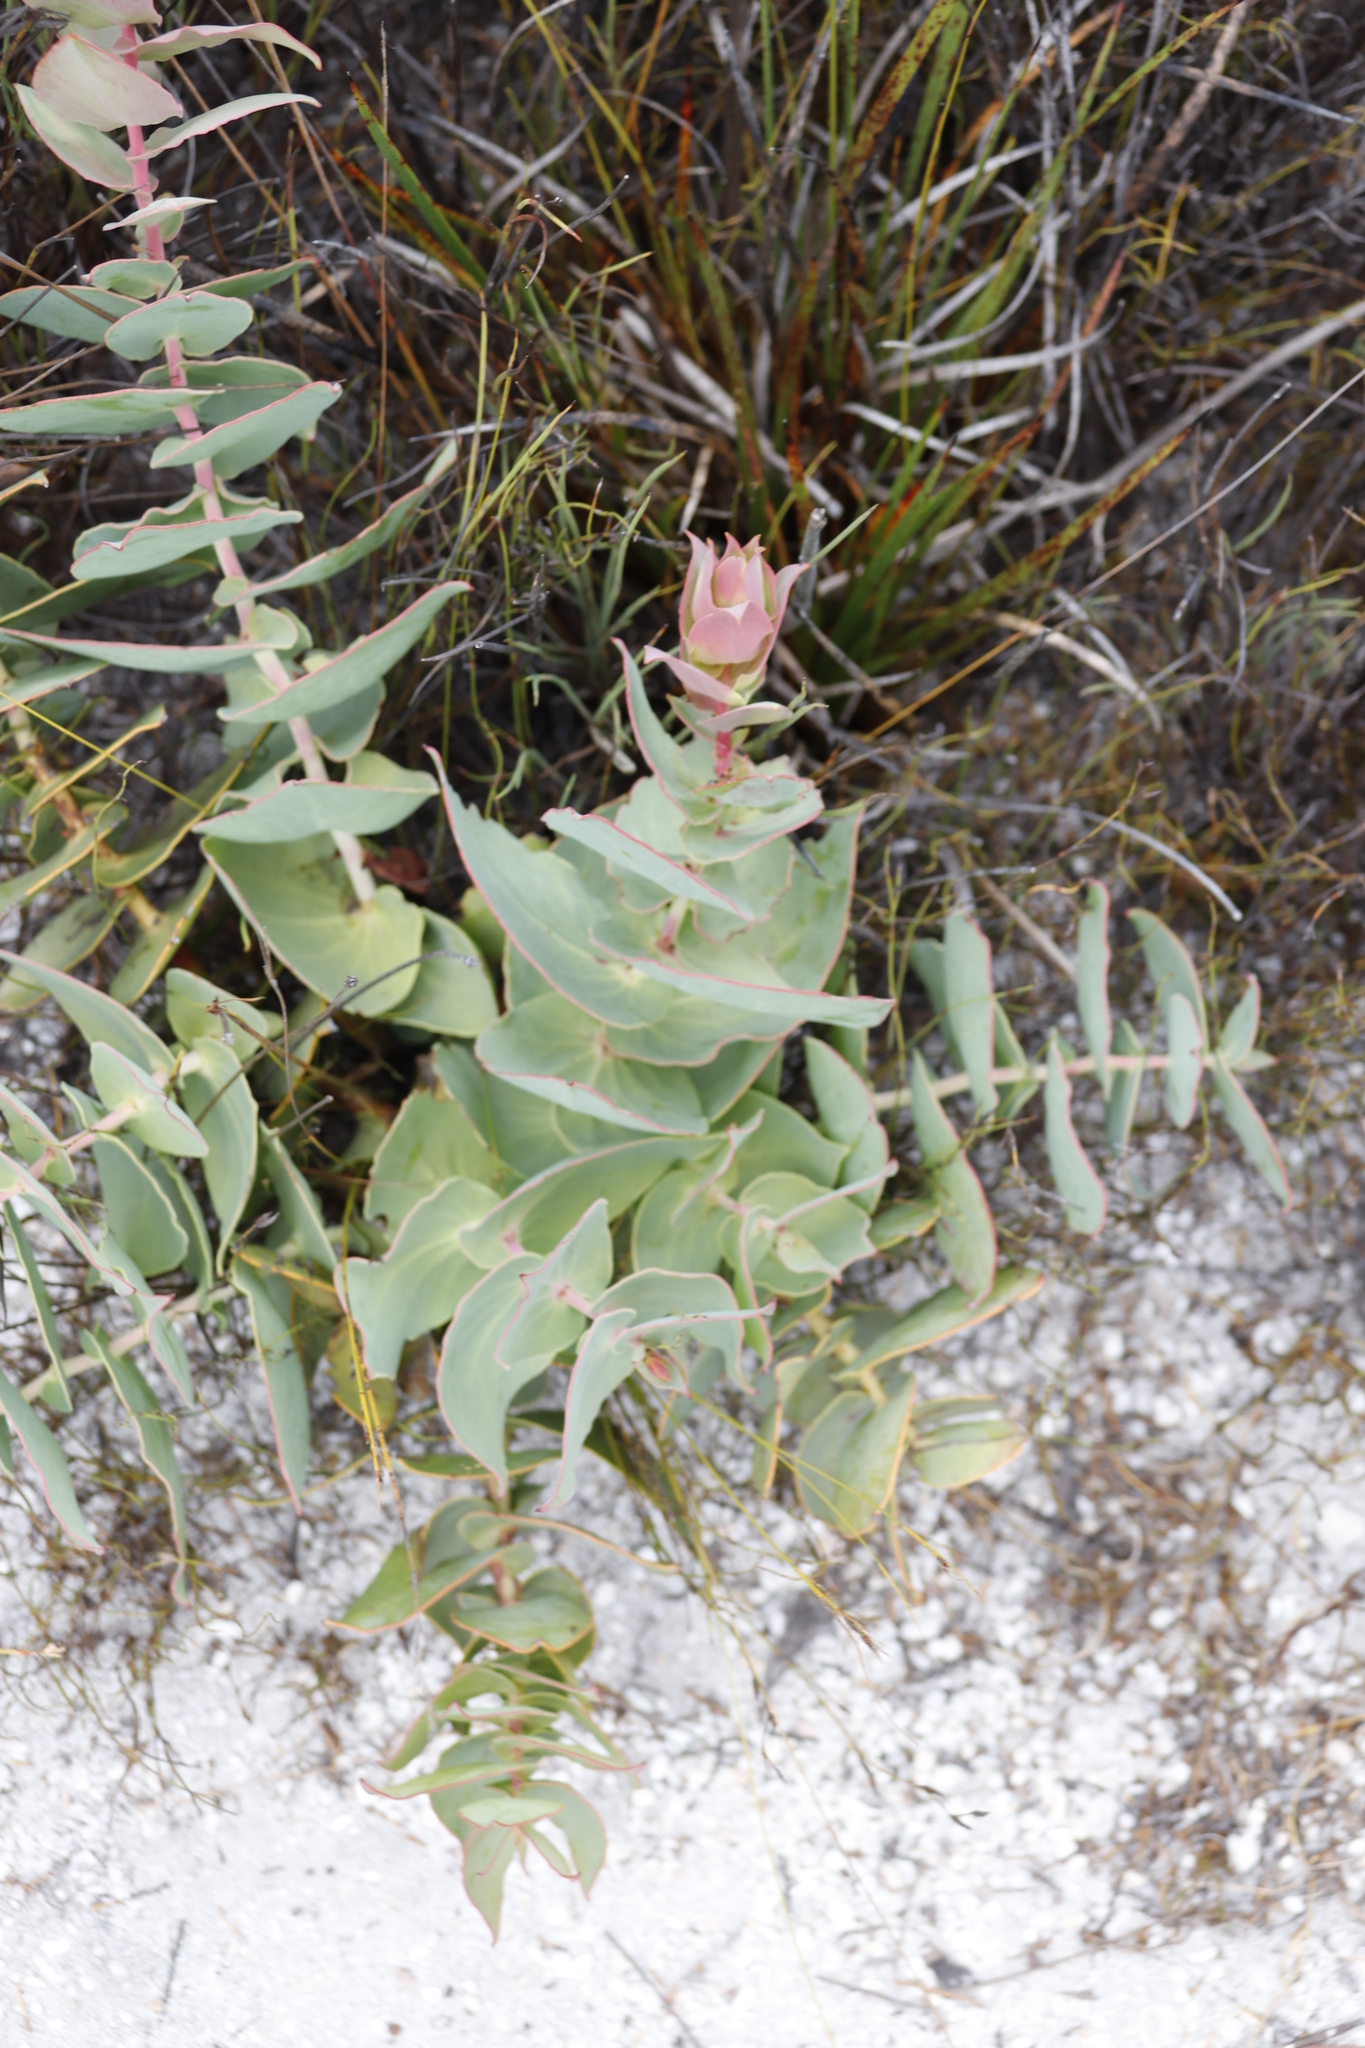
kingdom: Plantae
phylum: Tracheophyta
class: Magnoliopsida
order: Proteales
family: Proteaceae
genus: Protea
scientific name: Protea amplexicaulis
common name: Clasping-leaf sugarbush
